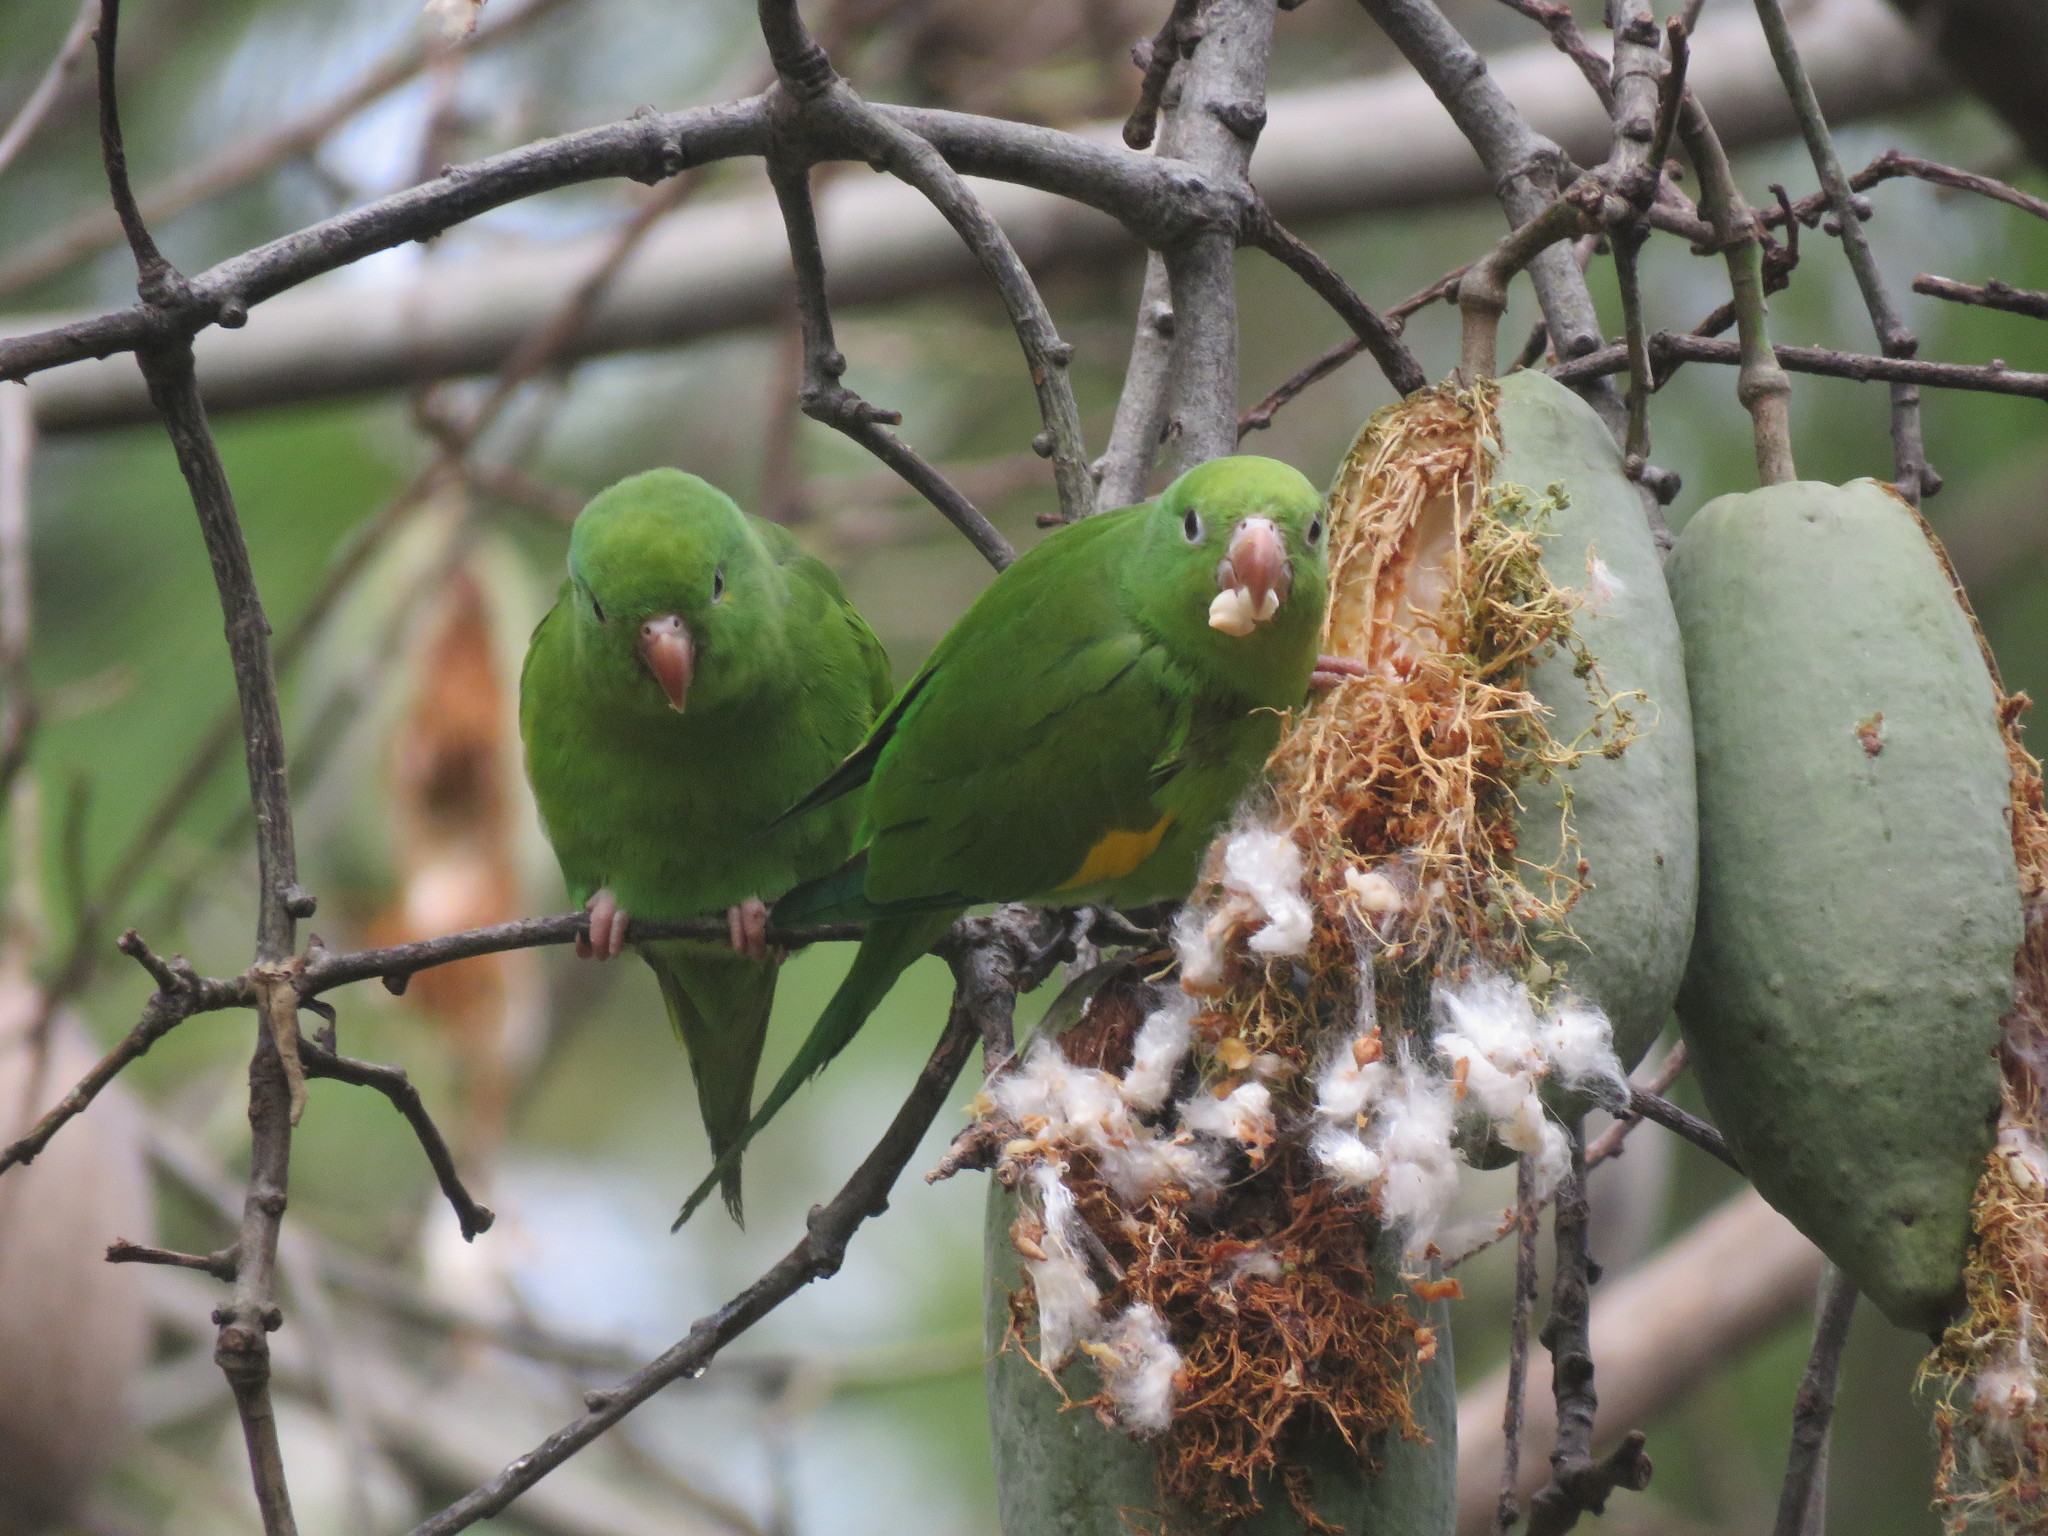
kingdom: Animalia
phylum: Chordata
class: Aves
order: Psittaciformes
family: Psittacidae
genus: Brotogeris
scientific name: Brotogeris chiriri
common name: Yellow-chevroned parakeet
